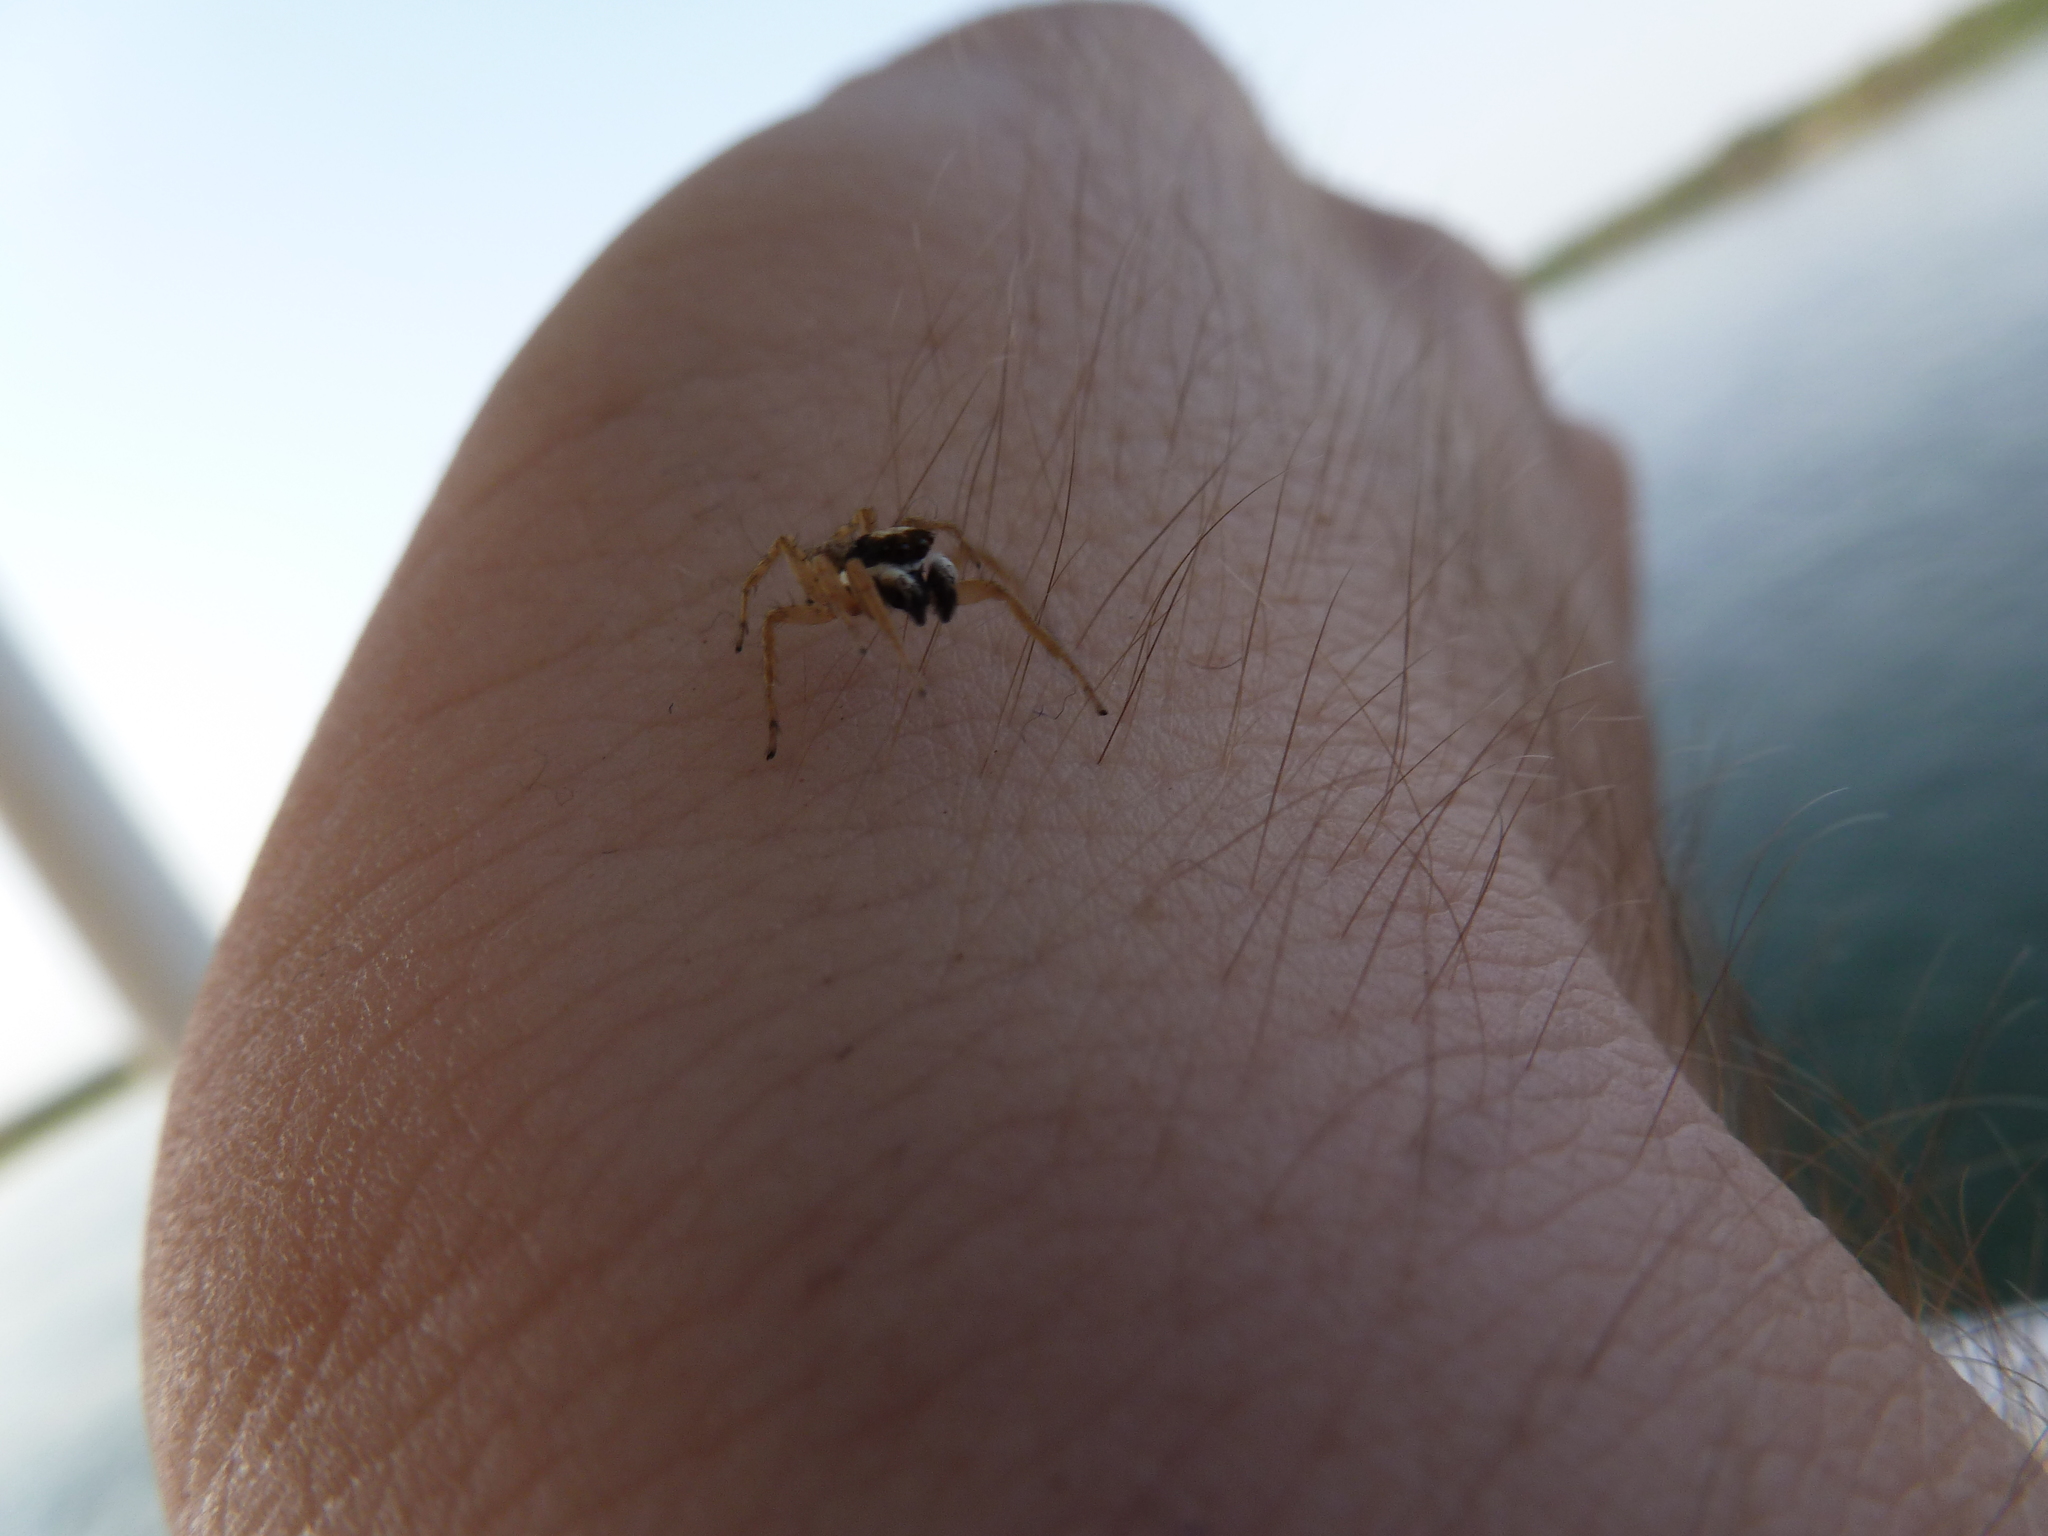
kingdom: Animalia
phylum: Arthropoda
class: Arachnida
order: Araneae
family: Salticidae
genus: Menemerus
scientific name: Menemerus semilimbatus
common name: Jumping spider
